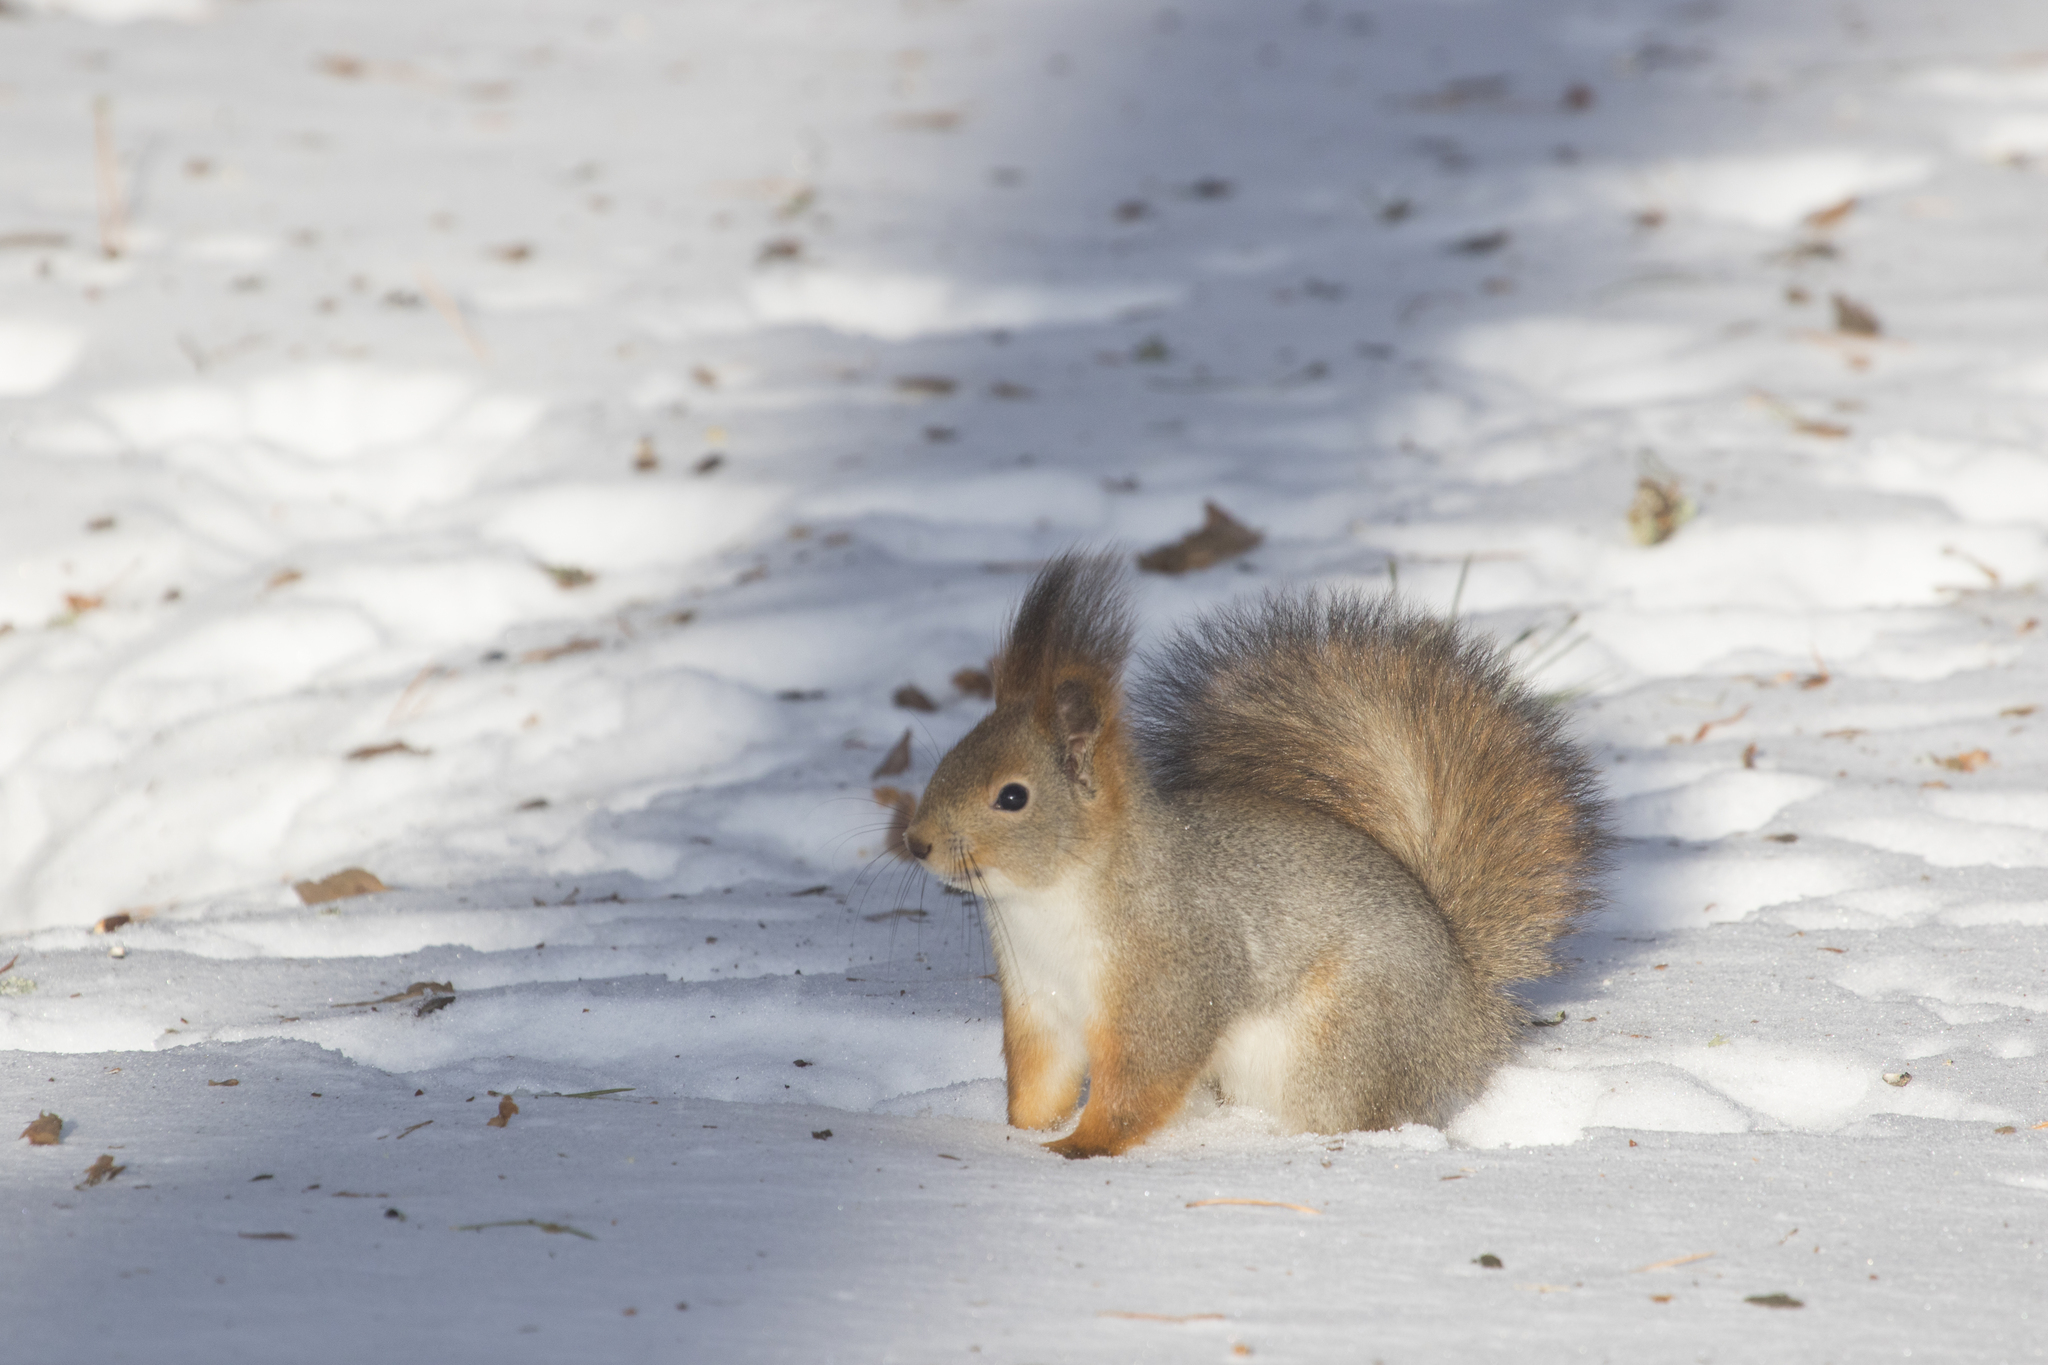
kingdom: Animalia
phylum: Chordata
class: Mammalia
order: Rodentia
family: Sciuridae
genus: Sciurus
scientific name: Sciurus vulgaris
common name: Eurasian red squirrel
